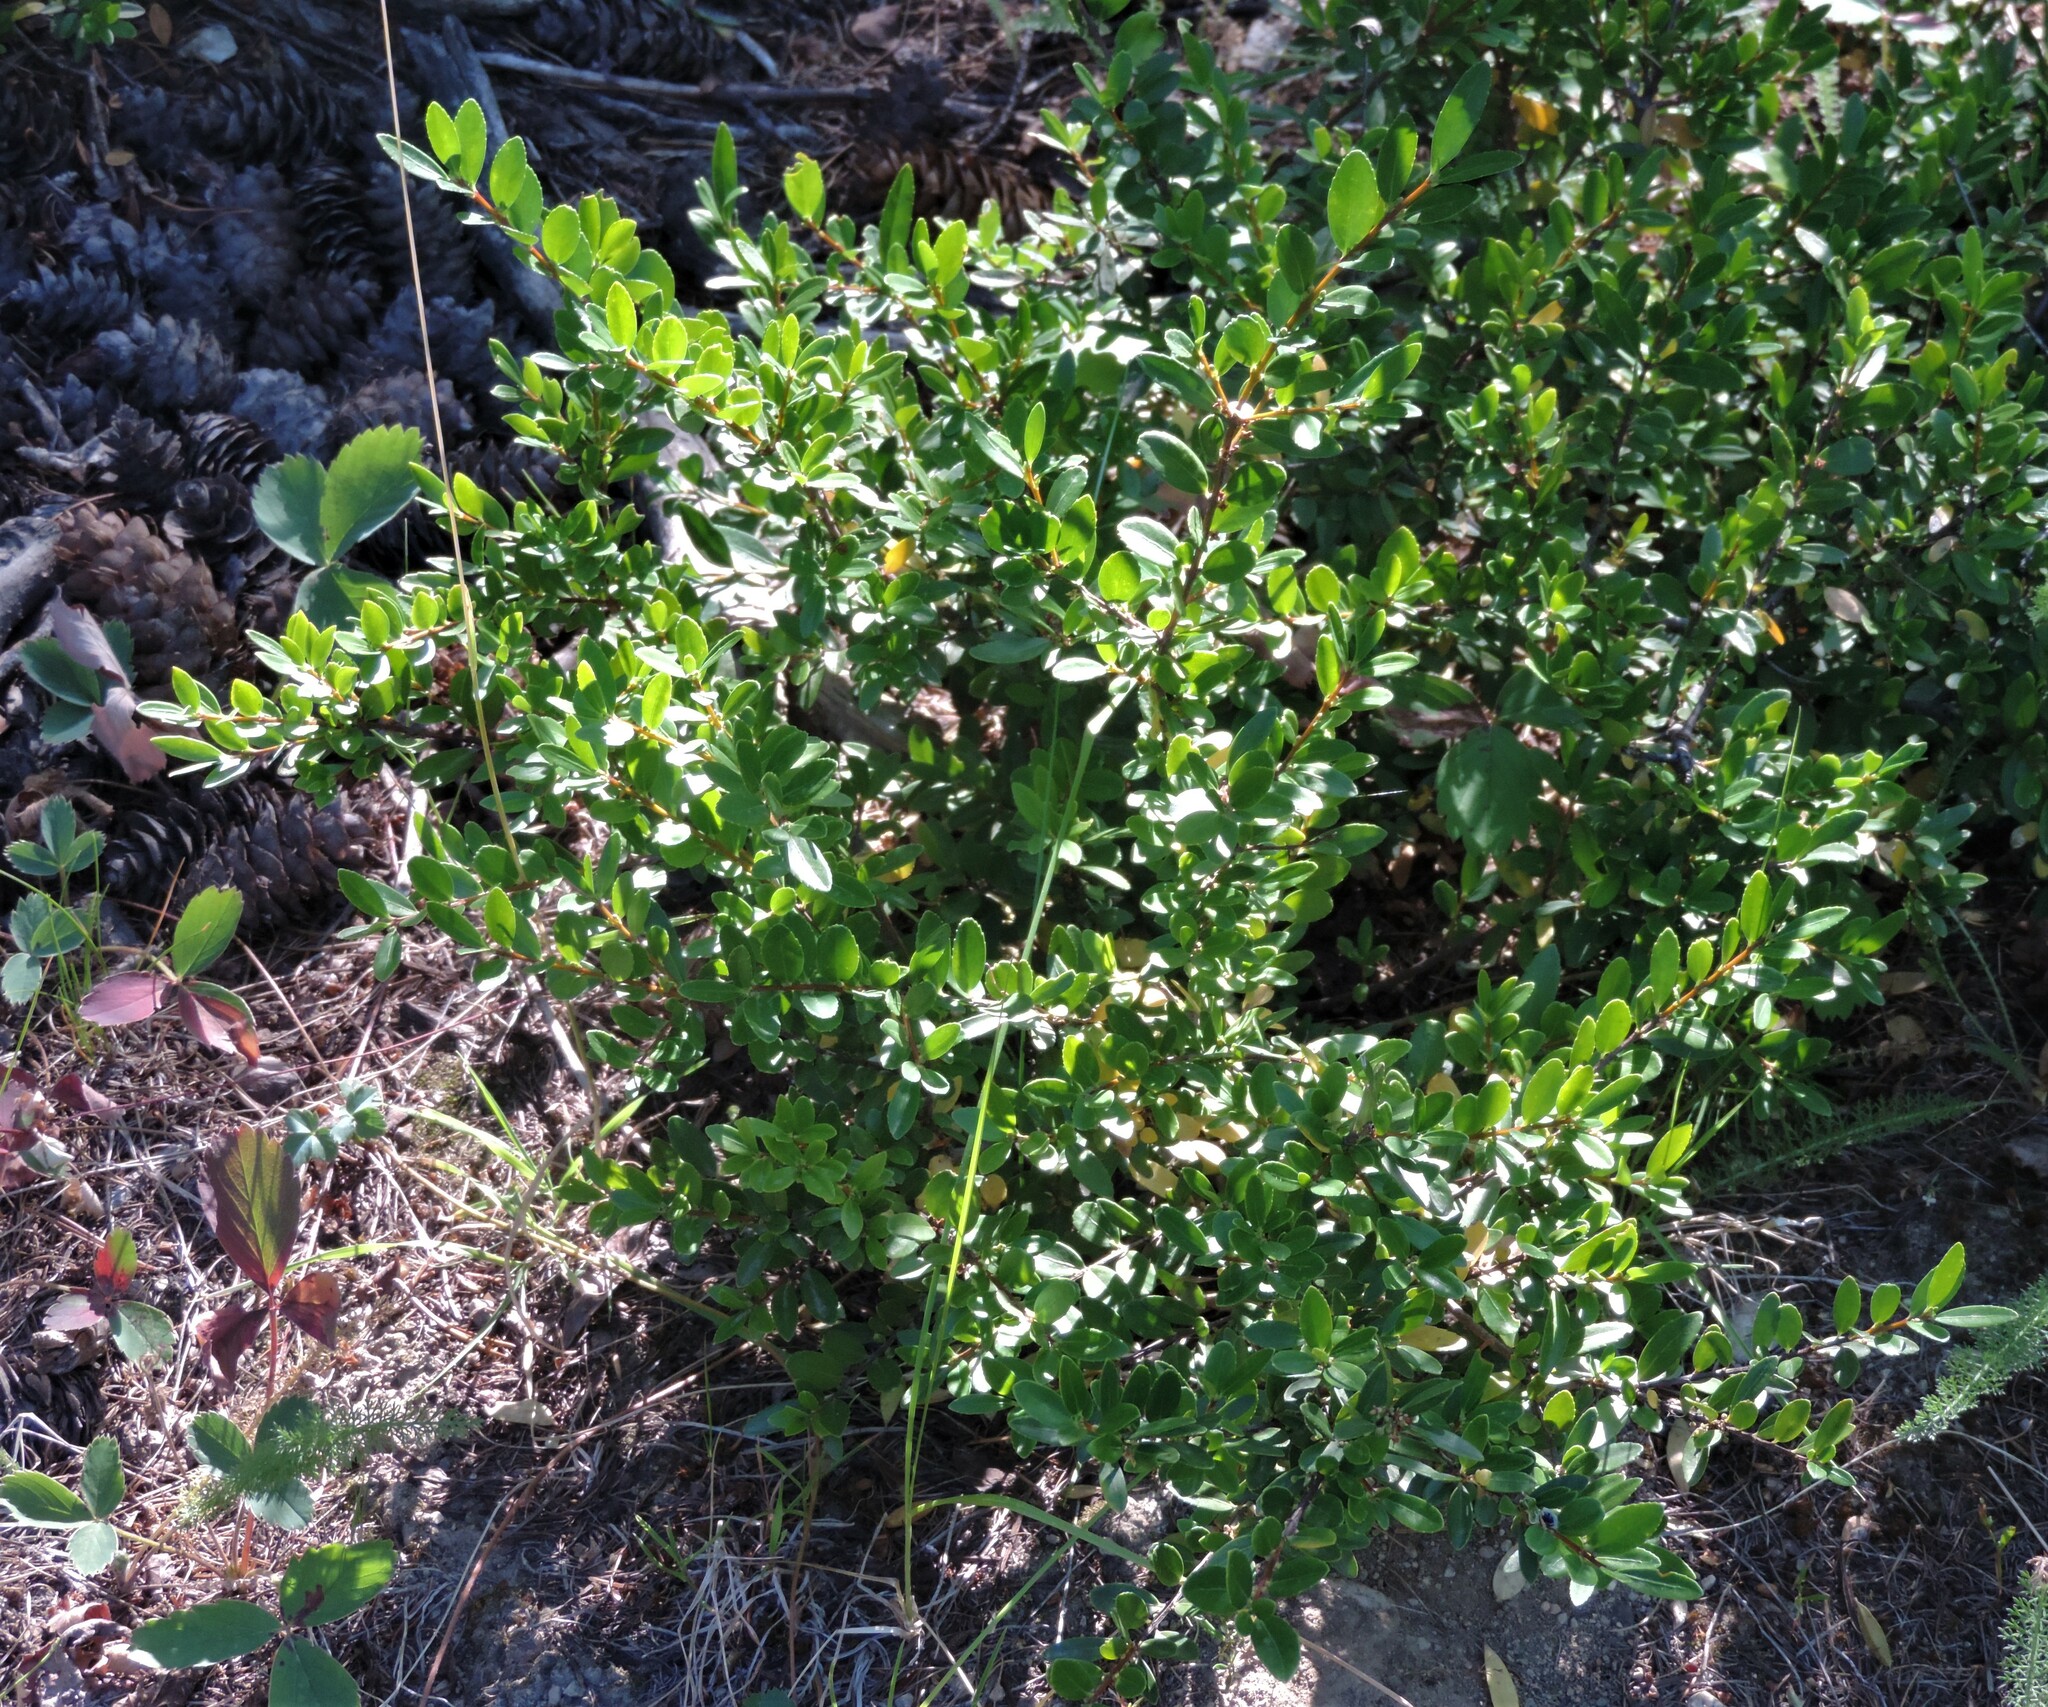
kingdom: Plantae
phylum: Tracheophyta
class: Magnoliopsida
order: Celastrales
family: Celastraceae
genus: Paxistima
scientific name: Paxistima myrsinites
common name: Mountain-lover
